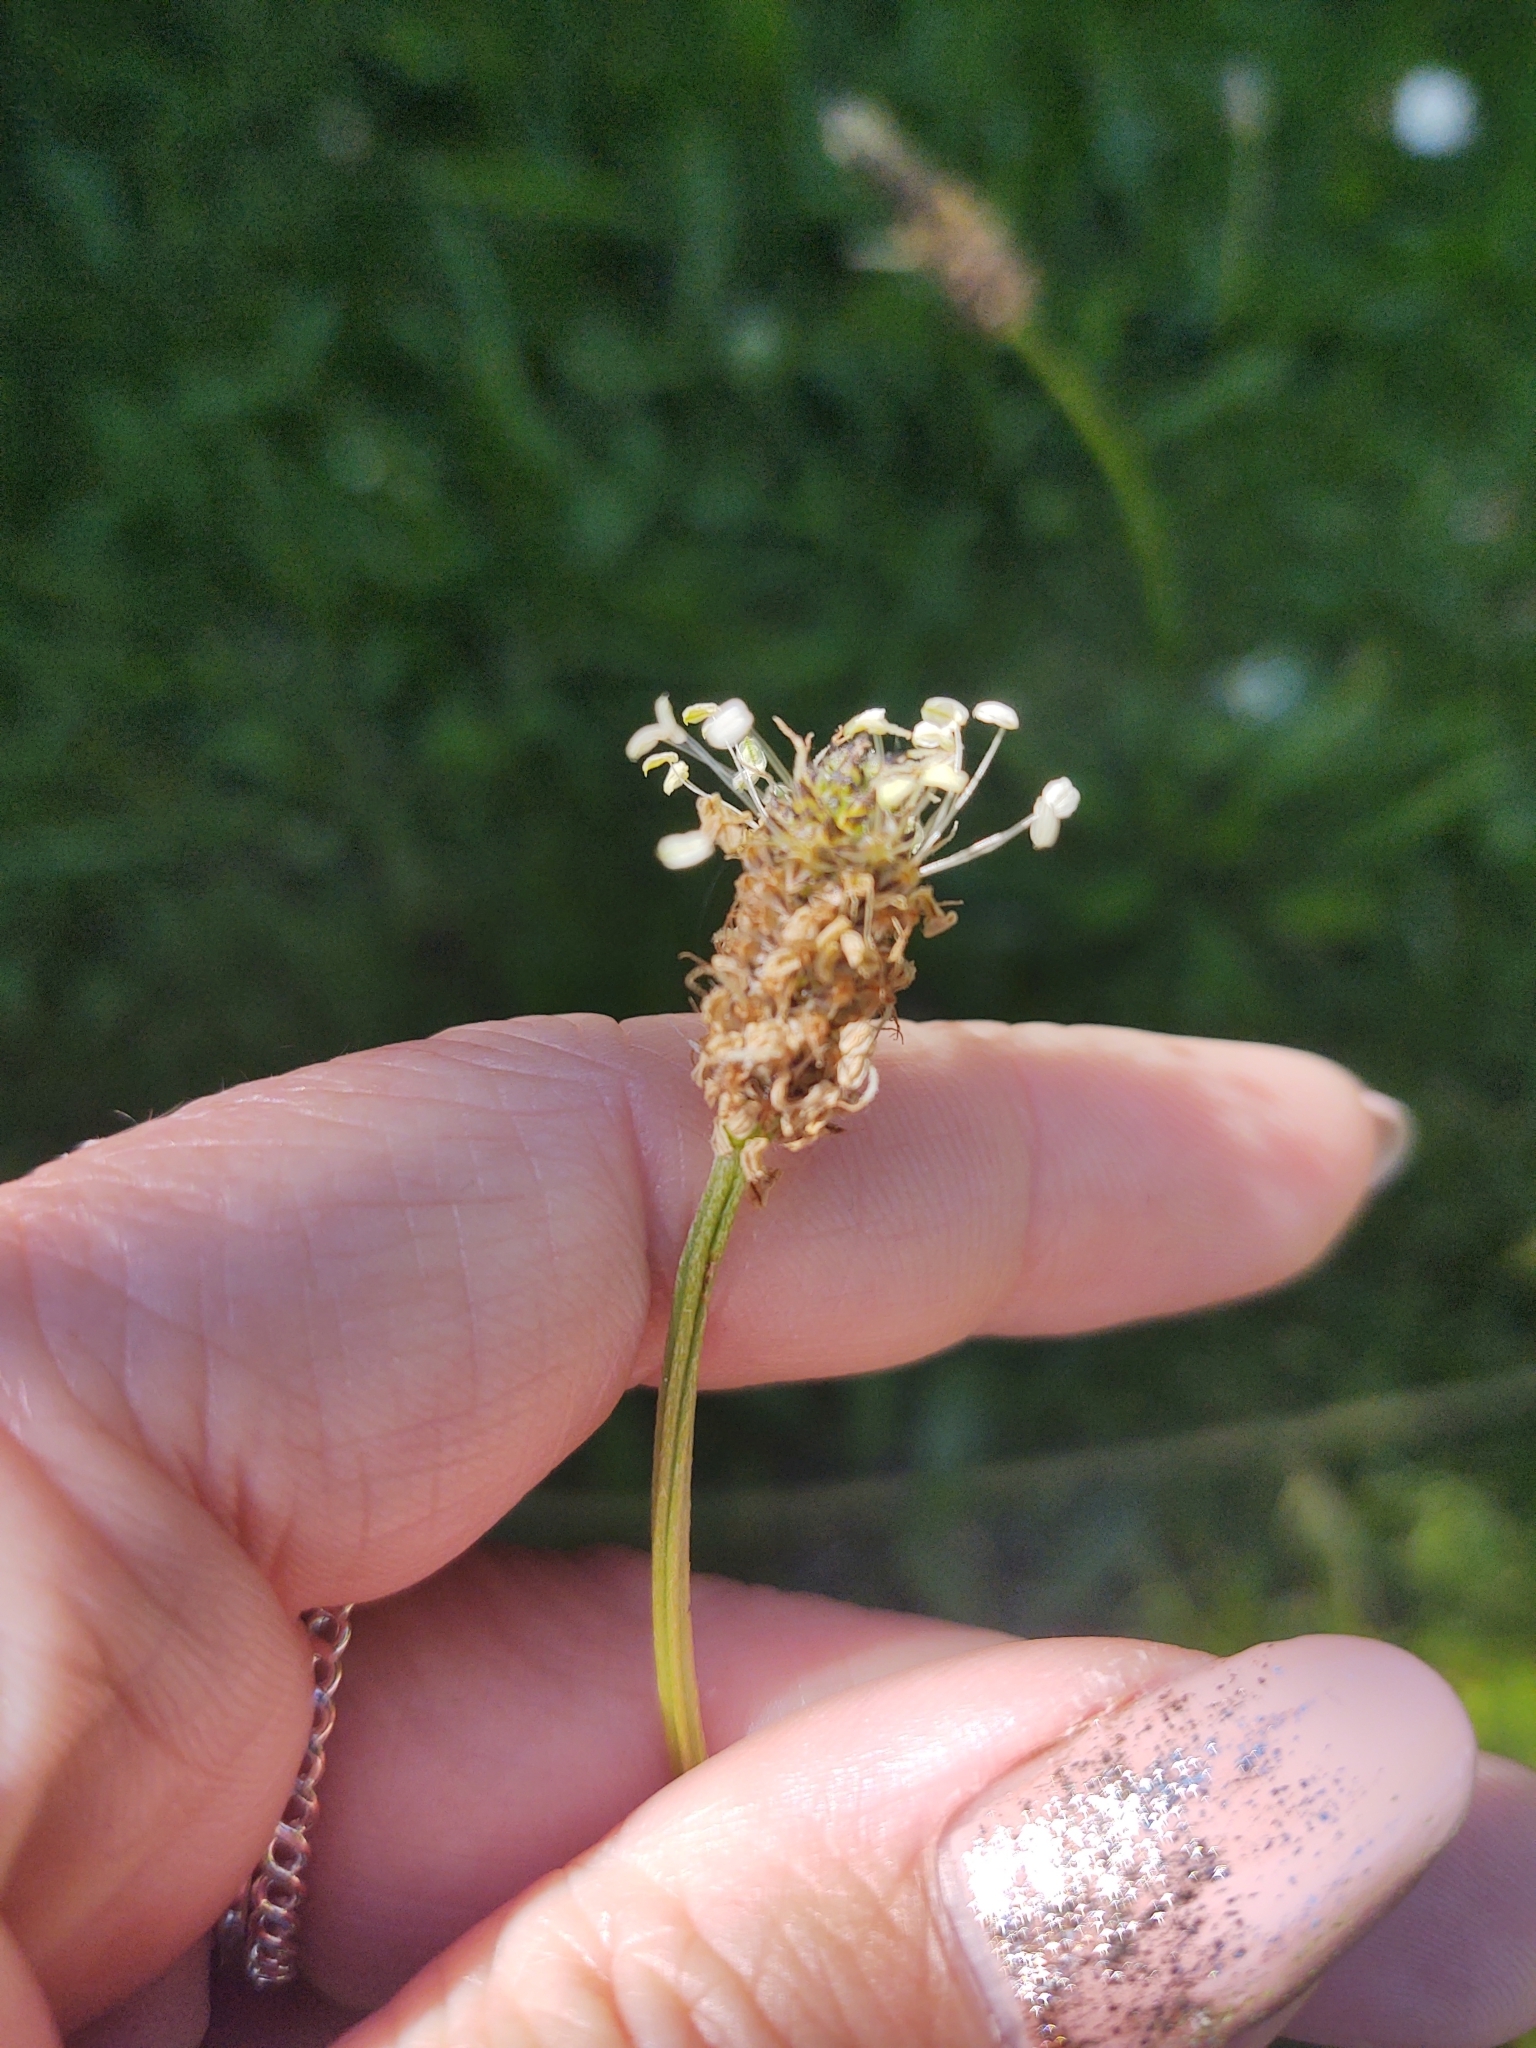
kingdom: Plantae
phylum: Tracheophyta
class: Magnoliopsida
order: Lamiales
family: Plantaginaceae
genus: Plantago
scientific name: Plantago lanceolata
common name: Ribwort plantain
